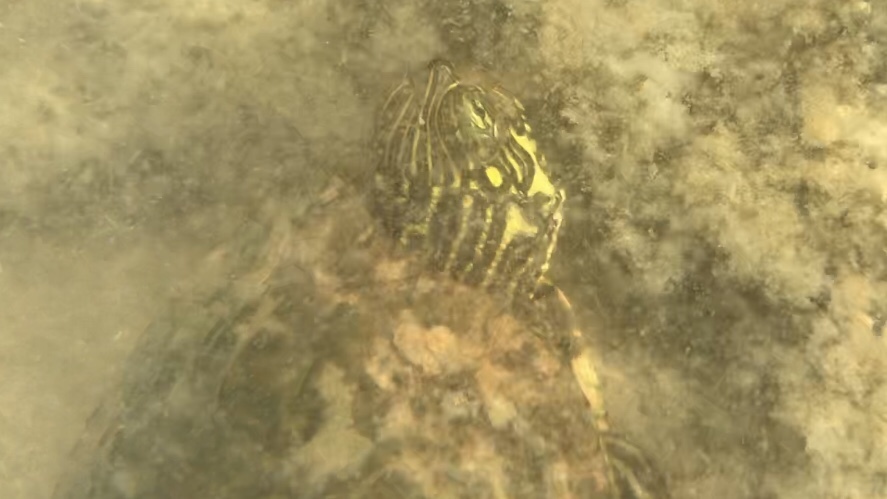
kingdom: Animalia
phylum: Chordata
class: Testudines
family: Emydidae
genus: Pseudemys
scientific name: Pseudemys texana
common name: Texas river cooter
